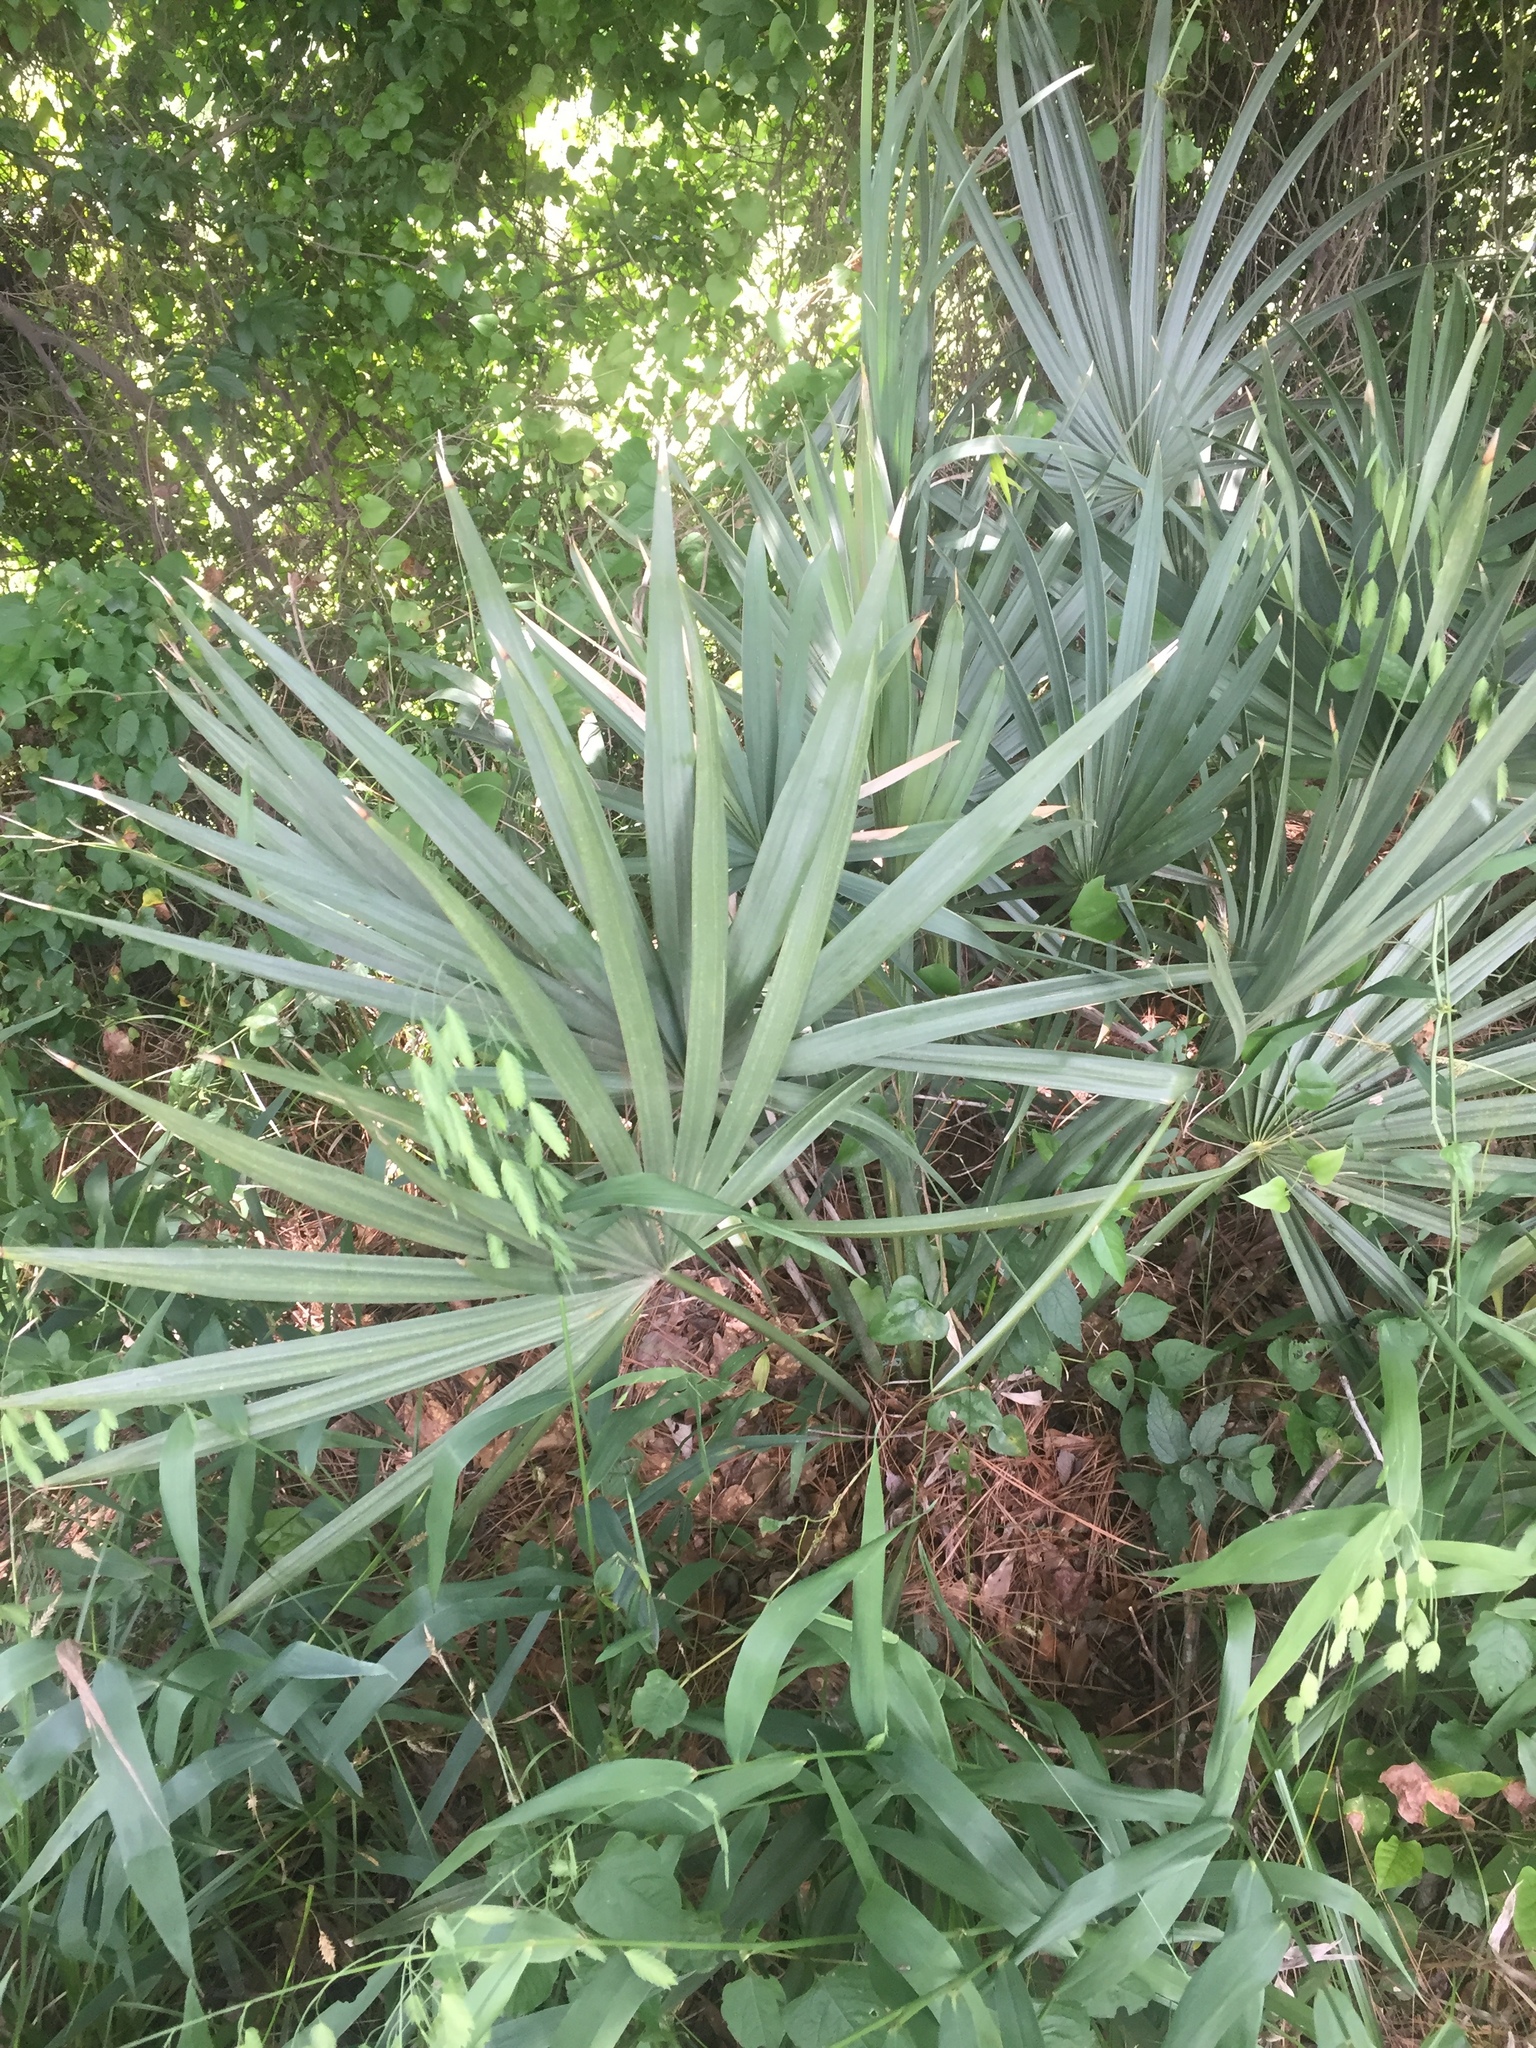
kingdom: Plantae
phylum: Tracheophyta
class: Liliopsida
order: Arecales
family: Arecaceae
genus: Sabal
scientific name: Sabal minor
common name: Dwarf palmetto
